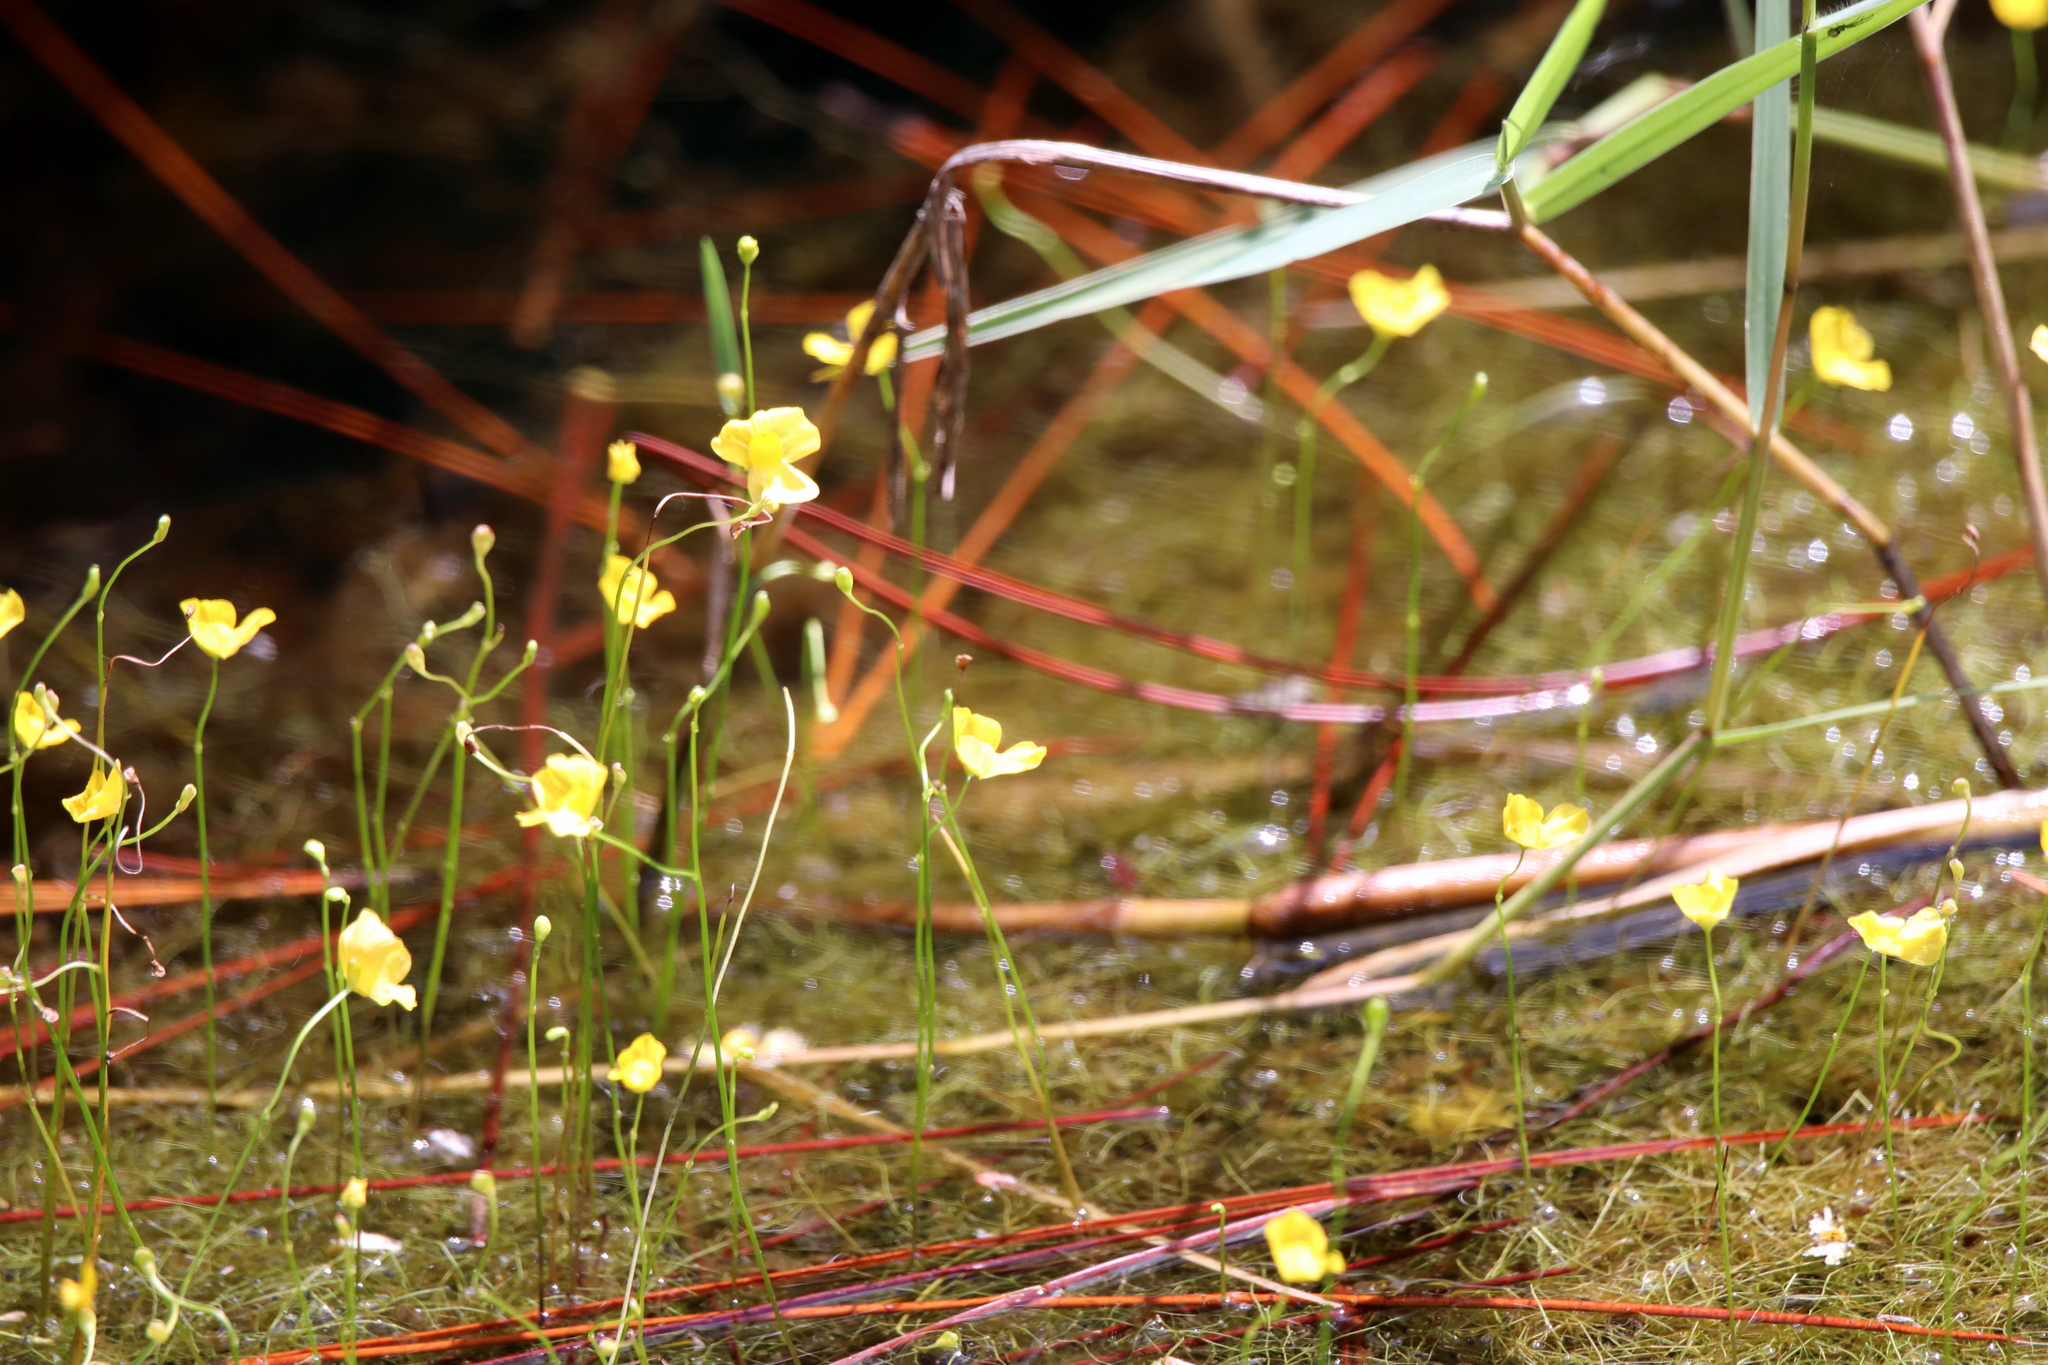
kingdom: Plantae
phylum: Tracheophyta
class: Magnoliopsida
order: Lamiales
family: Lentibulariaceae
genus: Utricularia
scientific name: Utricularia gibba
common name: Humped bladderwort
